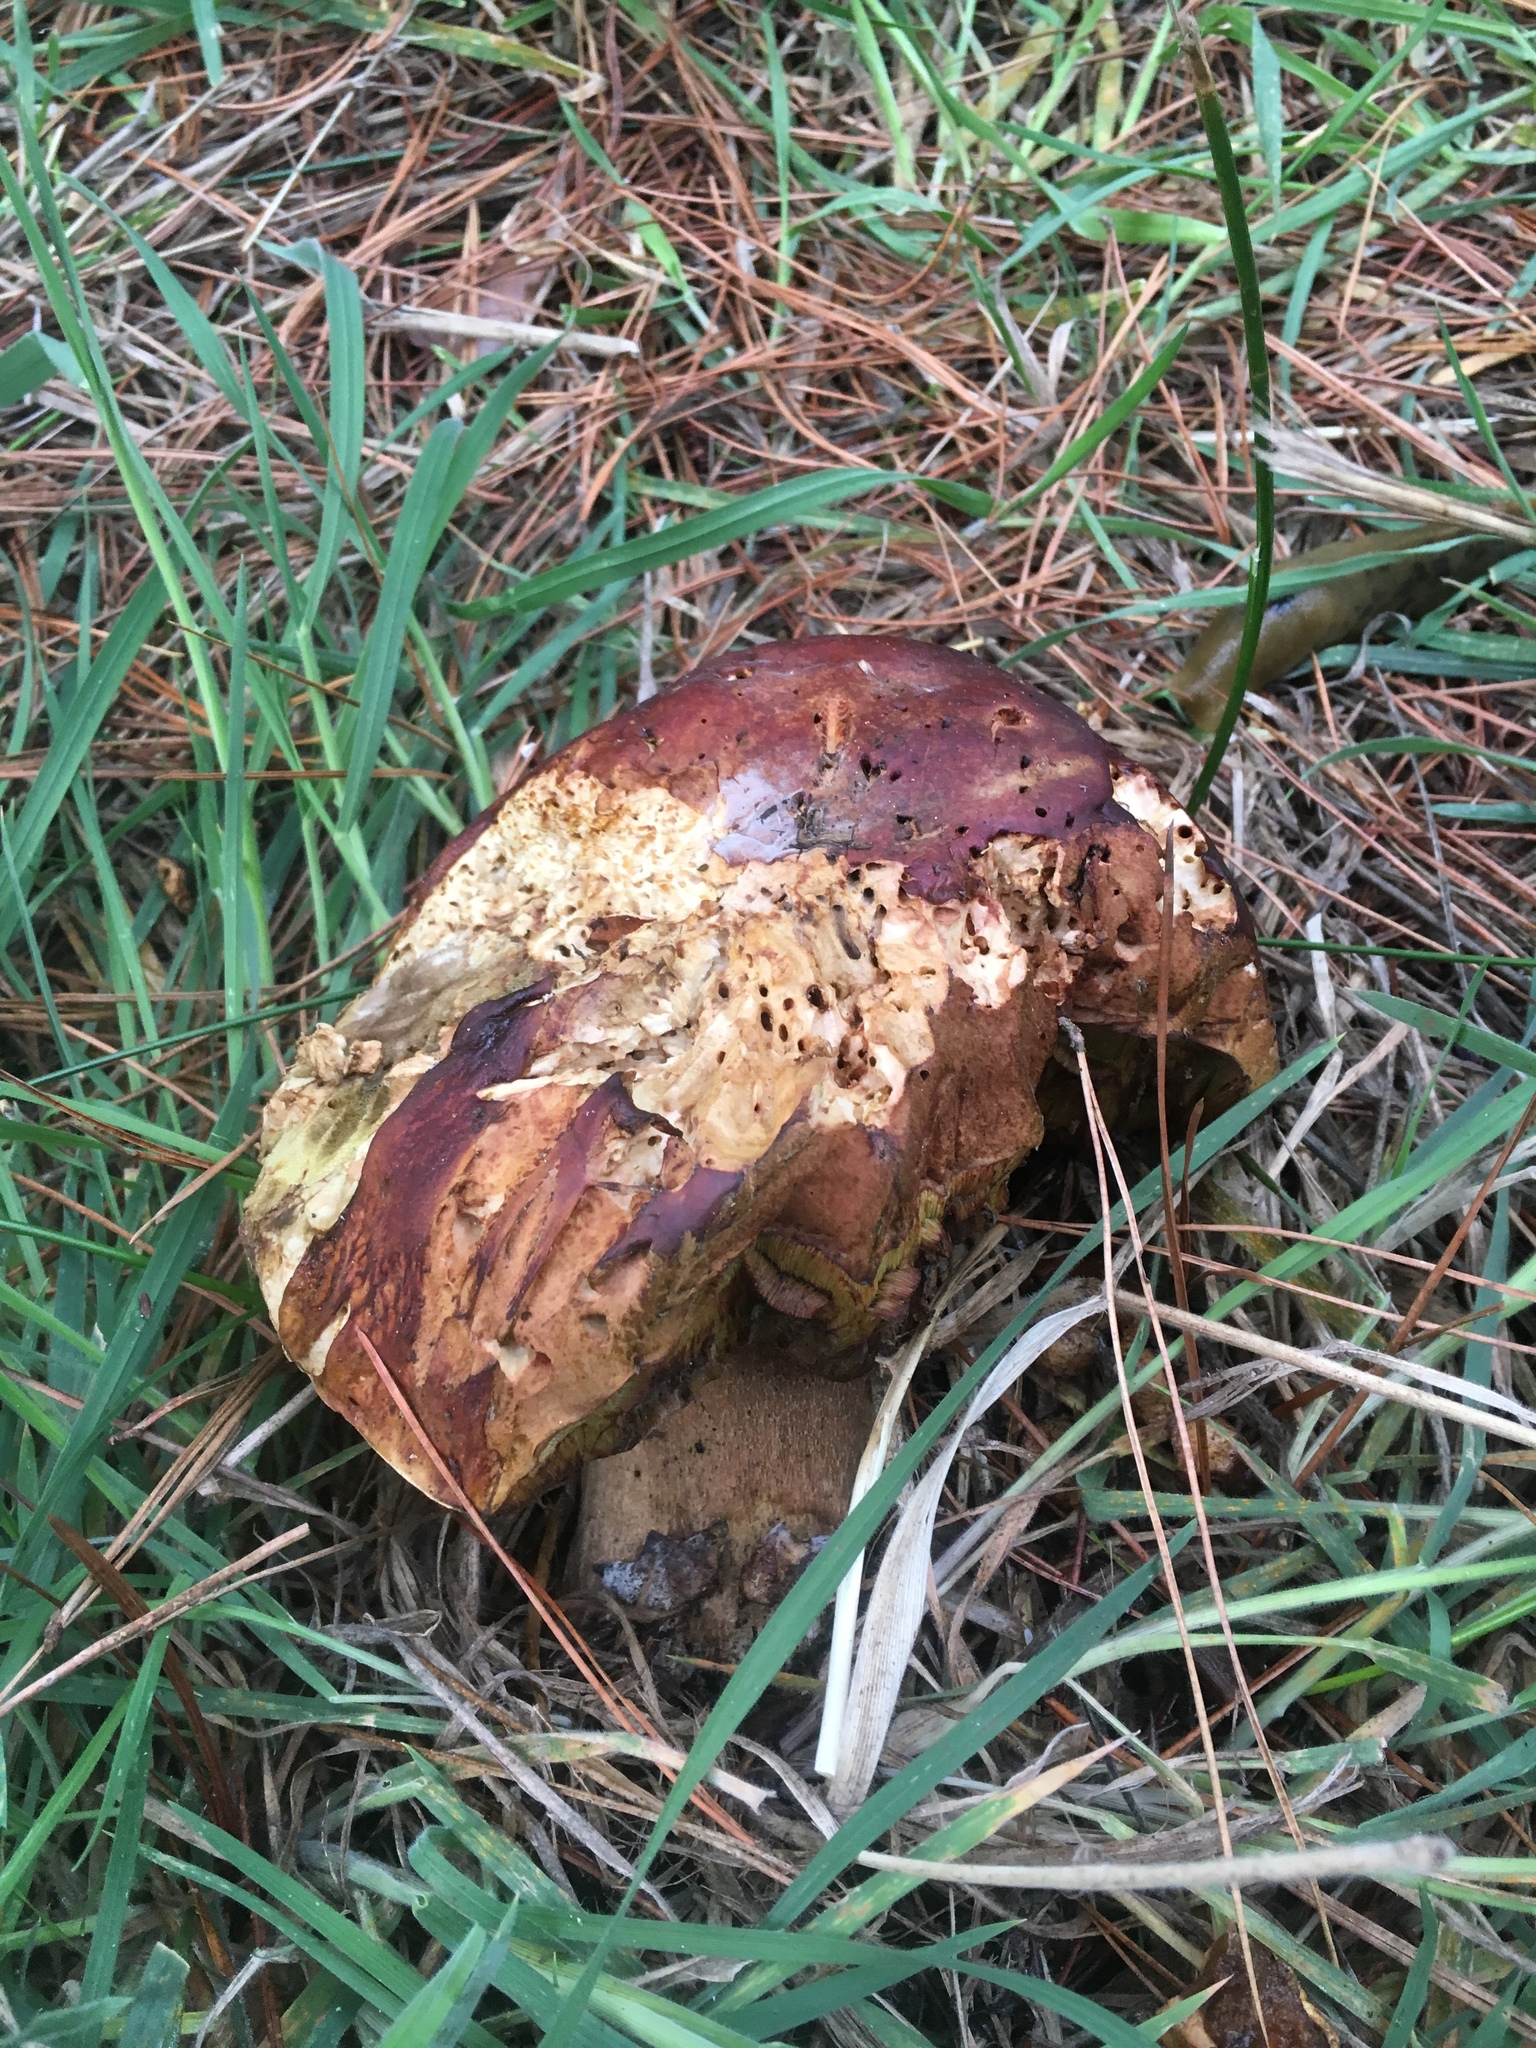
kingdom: Fungi
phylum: Basidiomycota
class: Agaricomycetes
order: Boletales
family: Boletaceae
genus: Boletus
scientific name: Boletus edulis
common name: Cep
